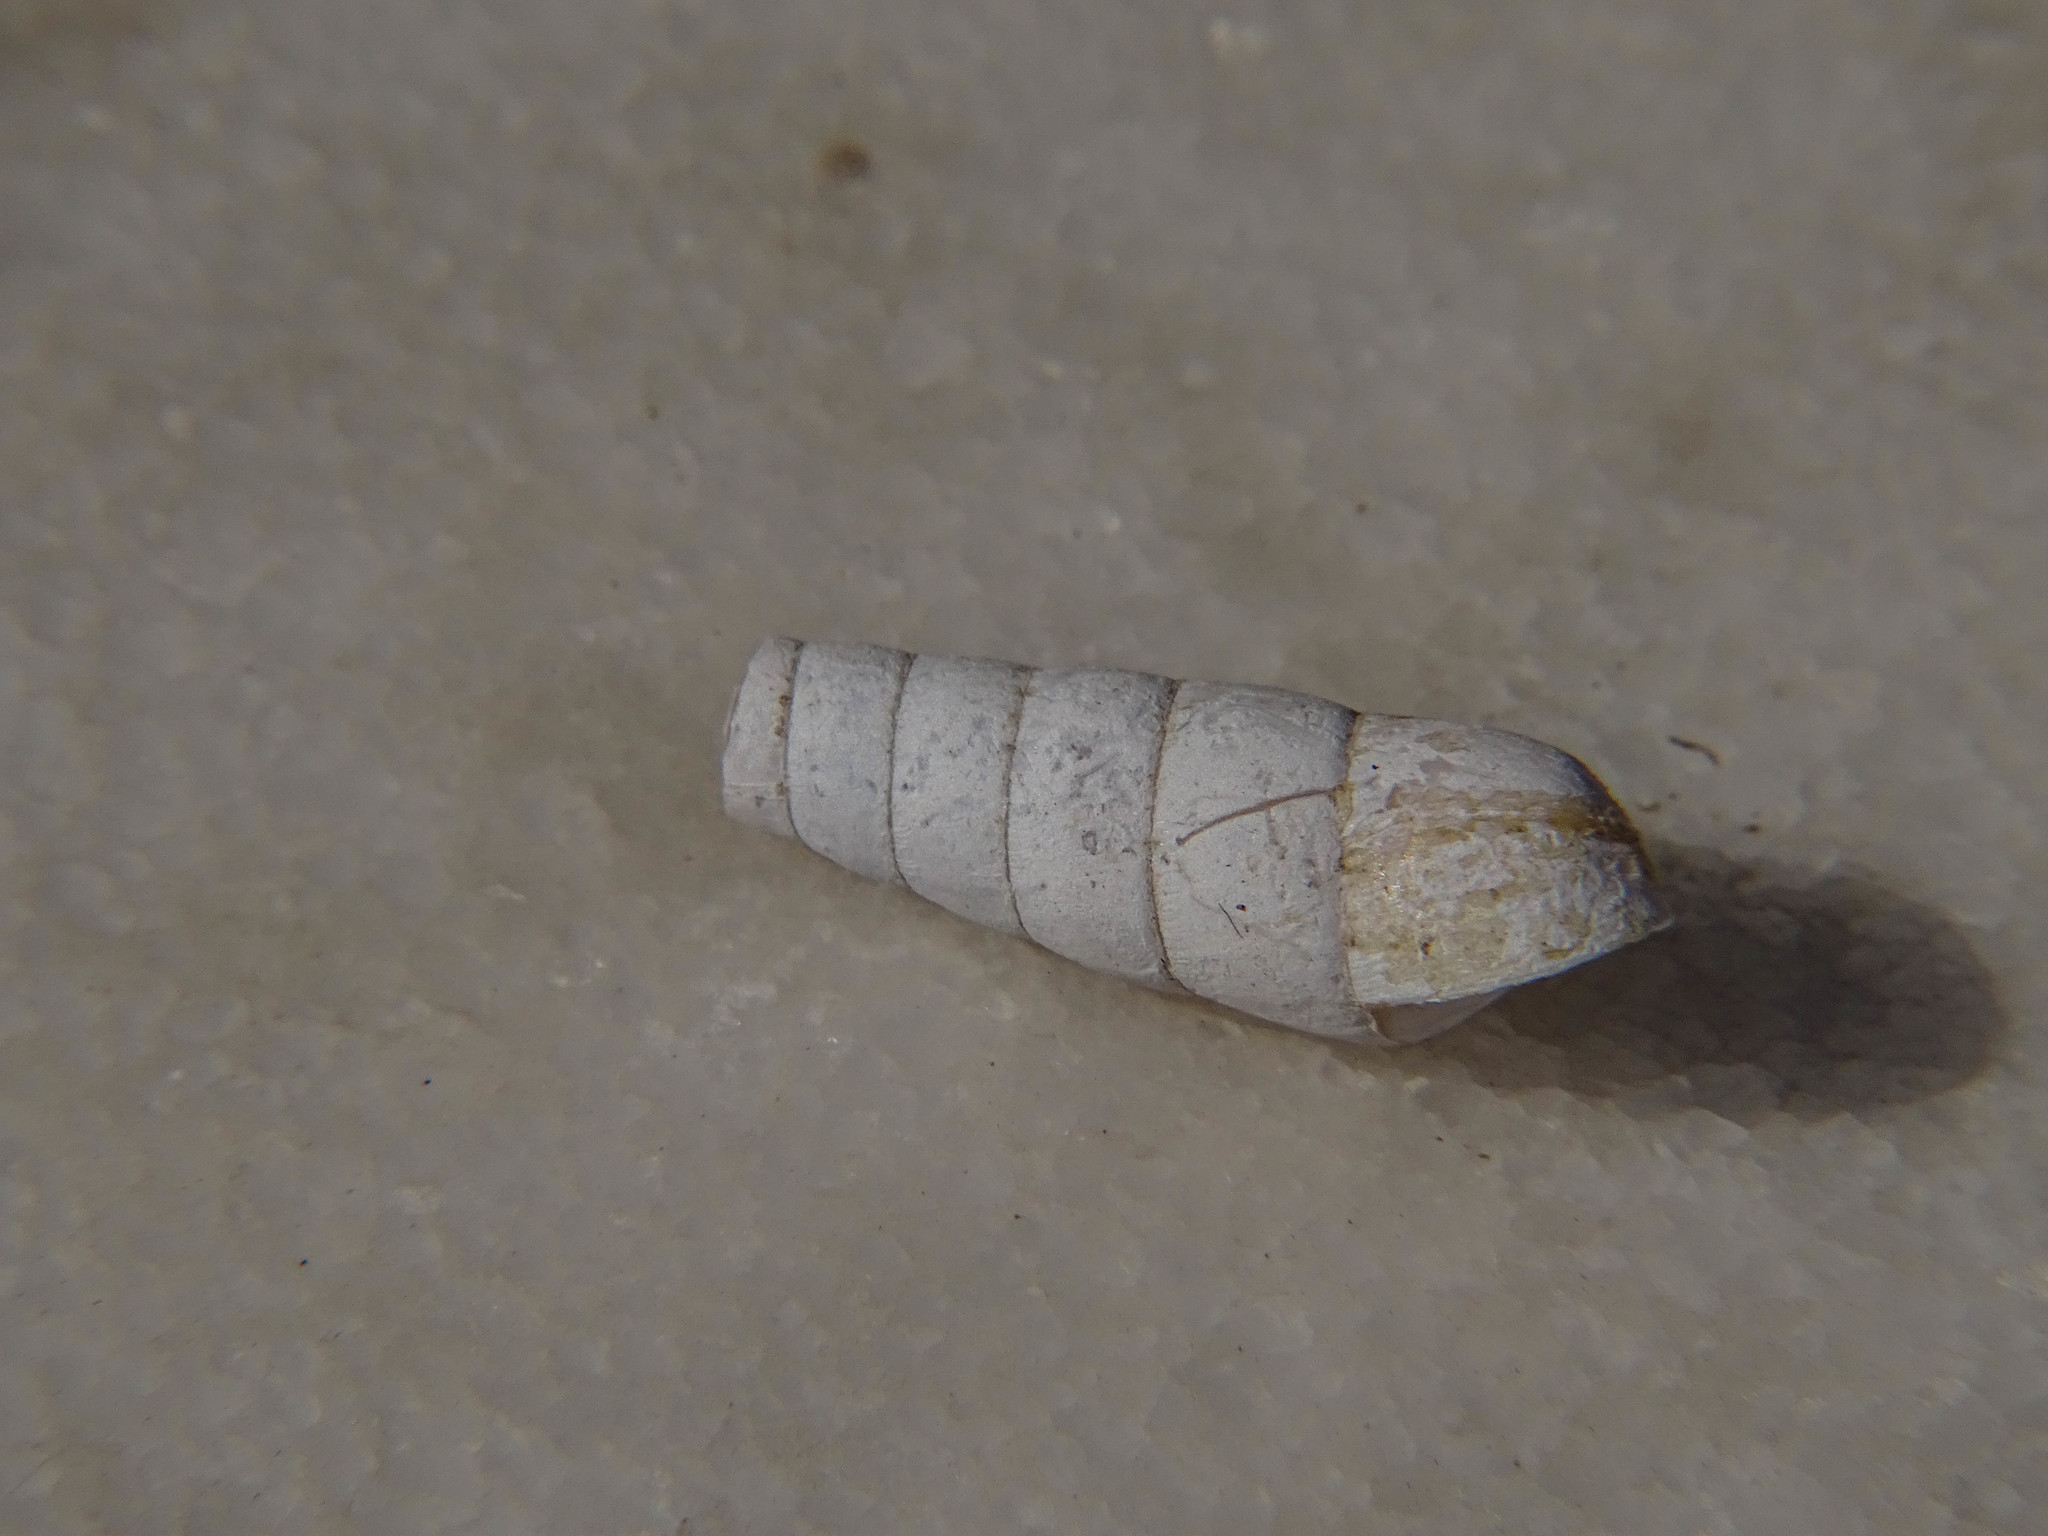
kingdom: Animalia
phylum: Mollusca
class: Gastropoda
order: Stylommatophora
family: Achatinidae
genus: Rumina
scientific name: Rumina saharica
